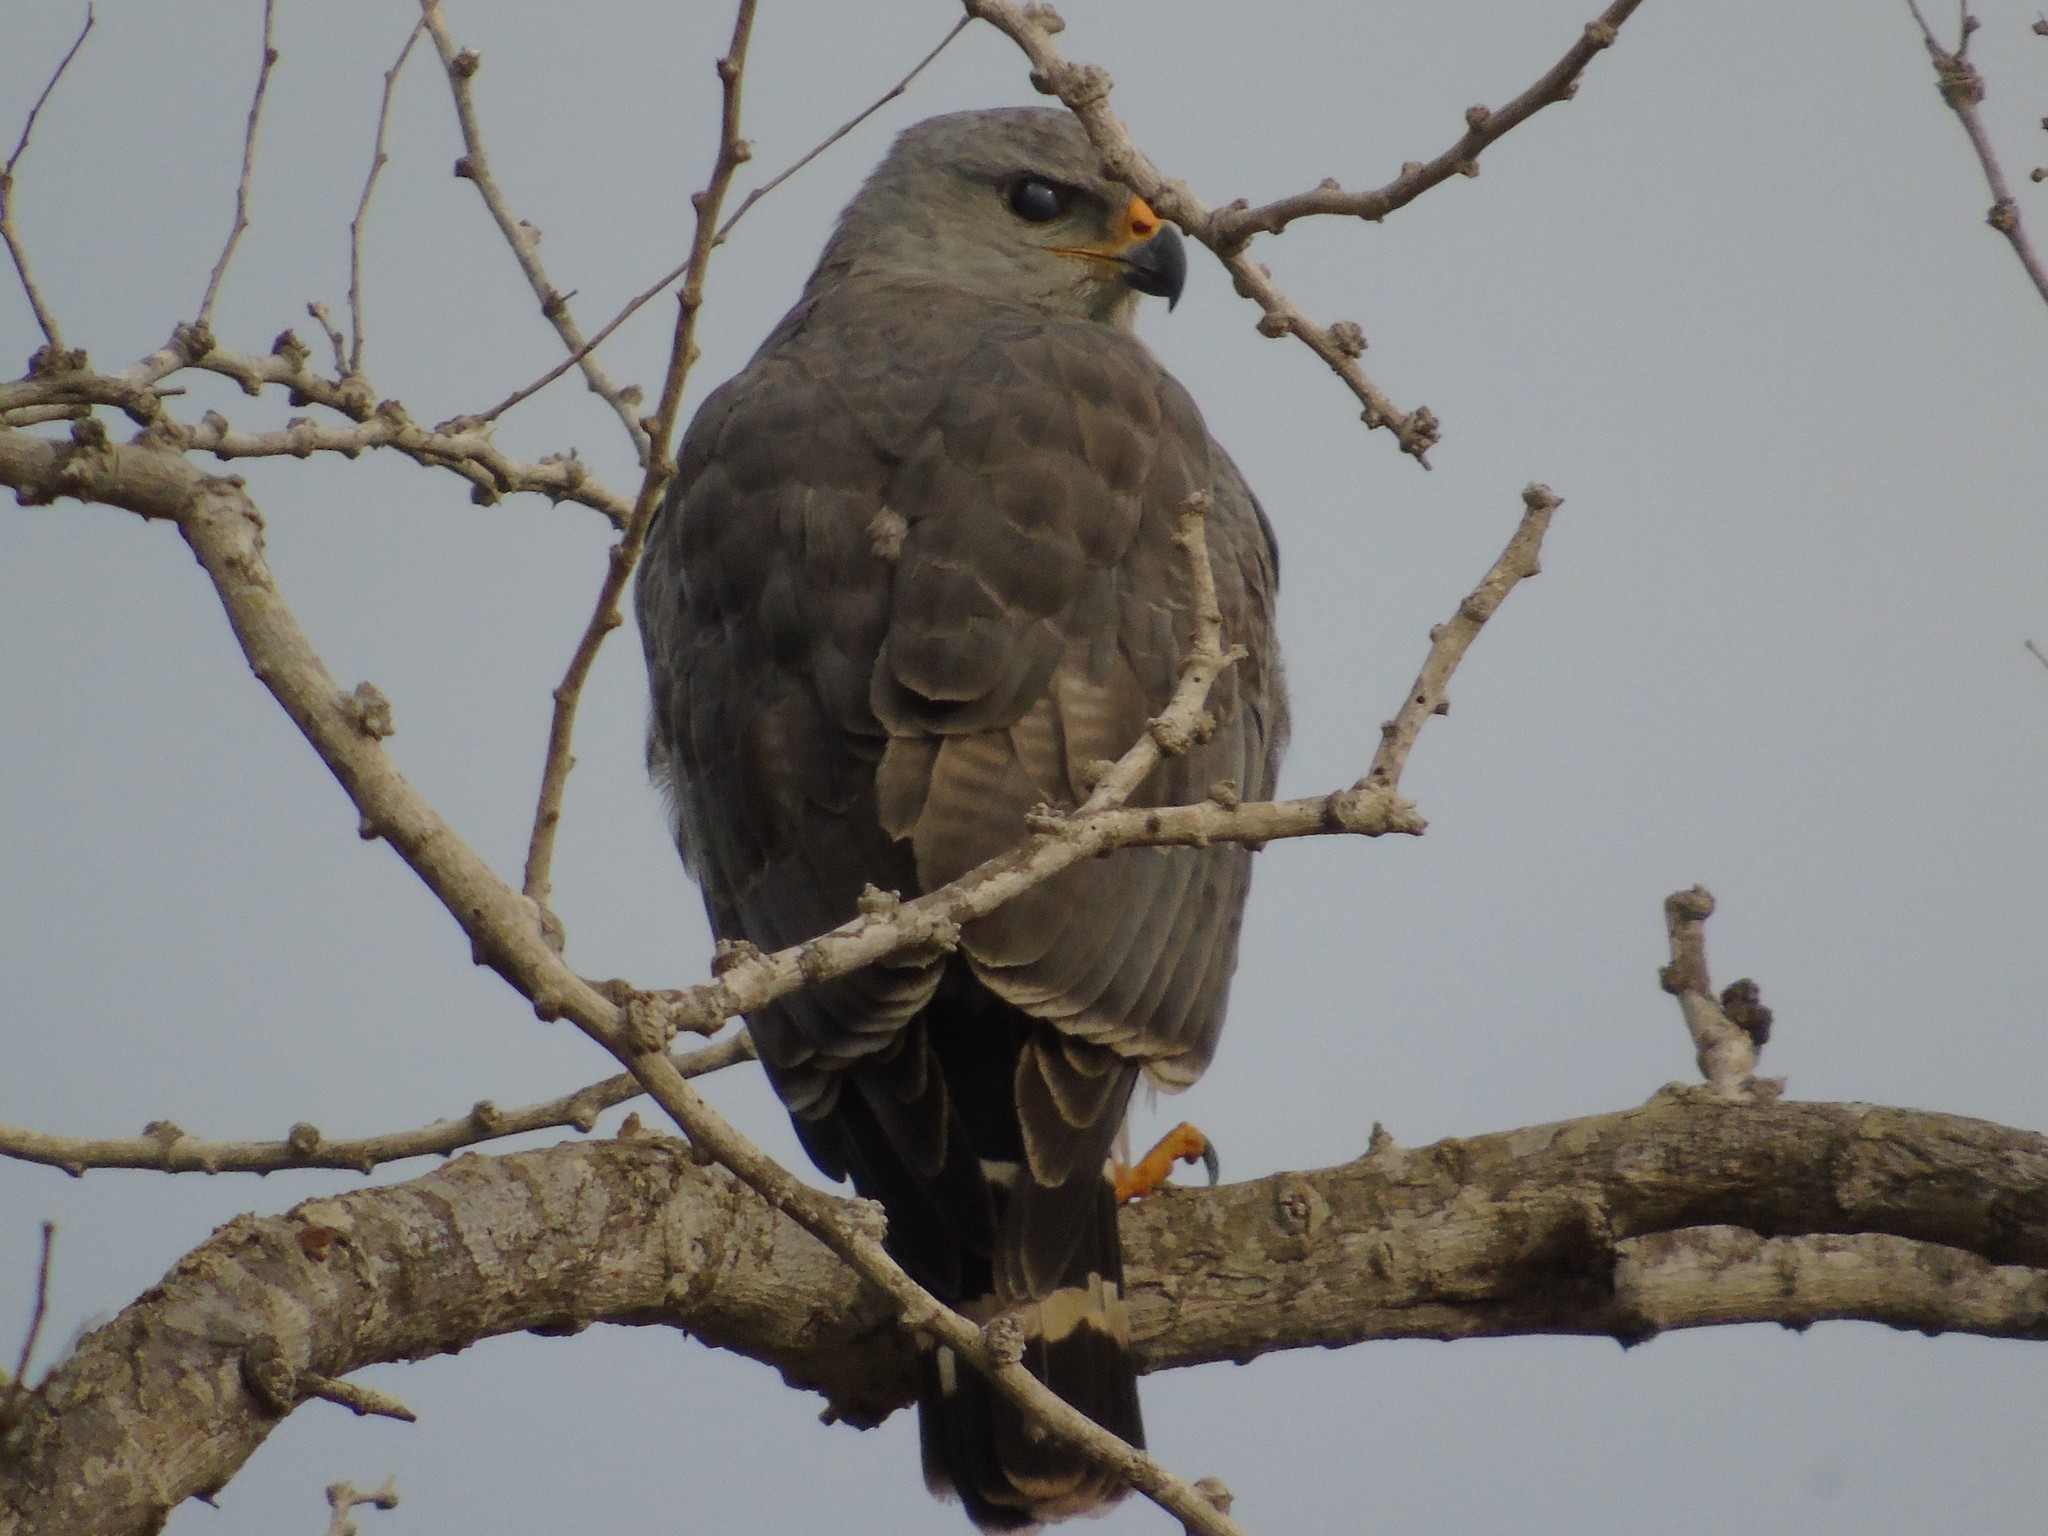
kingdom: Animalia
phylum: Chordata
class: Aves
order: Accipitriformes
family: Accipitridae
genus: Buteo
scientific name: Buteo nitidus
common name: Grey-lined hawk
